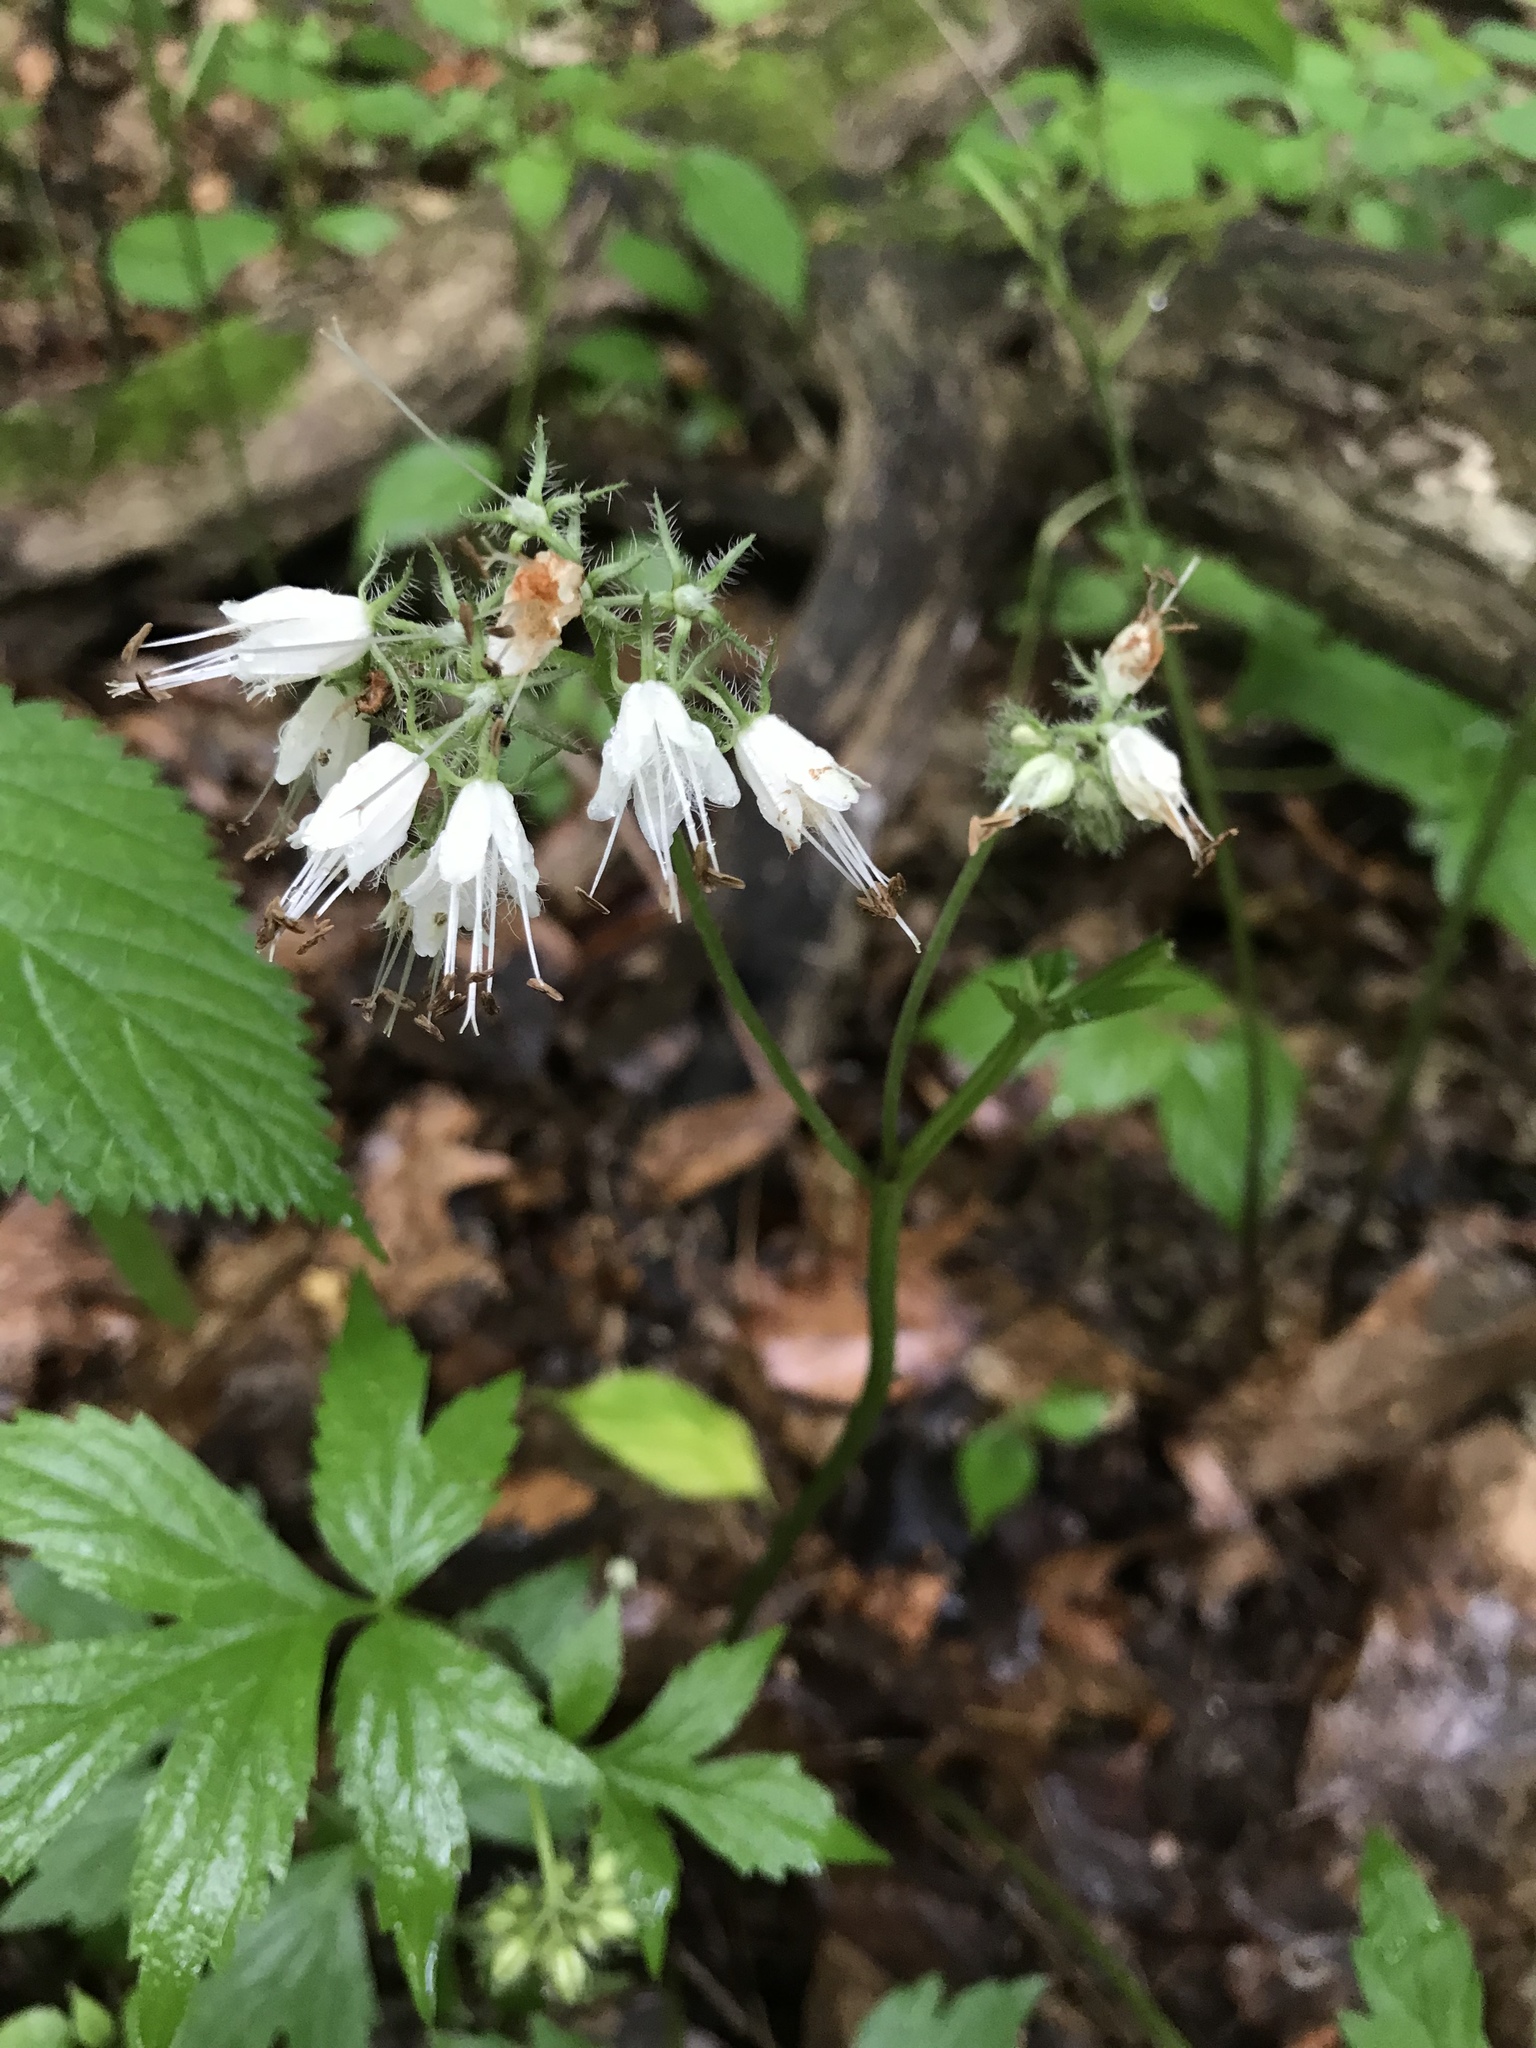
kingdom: Plantae
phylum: Tracheophyta
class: Magnoliopsida
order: Boraginales
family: Hydrophyllaceae
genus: Hydrophyllum
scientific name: Hydrophyllum virginianum
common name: Virginia waterleaf
